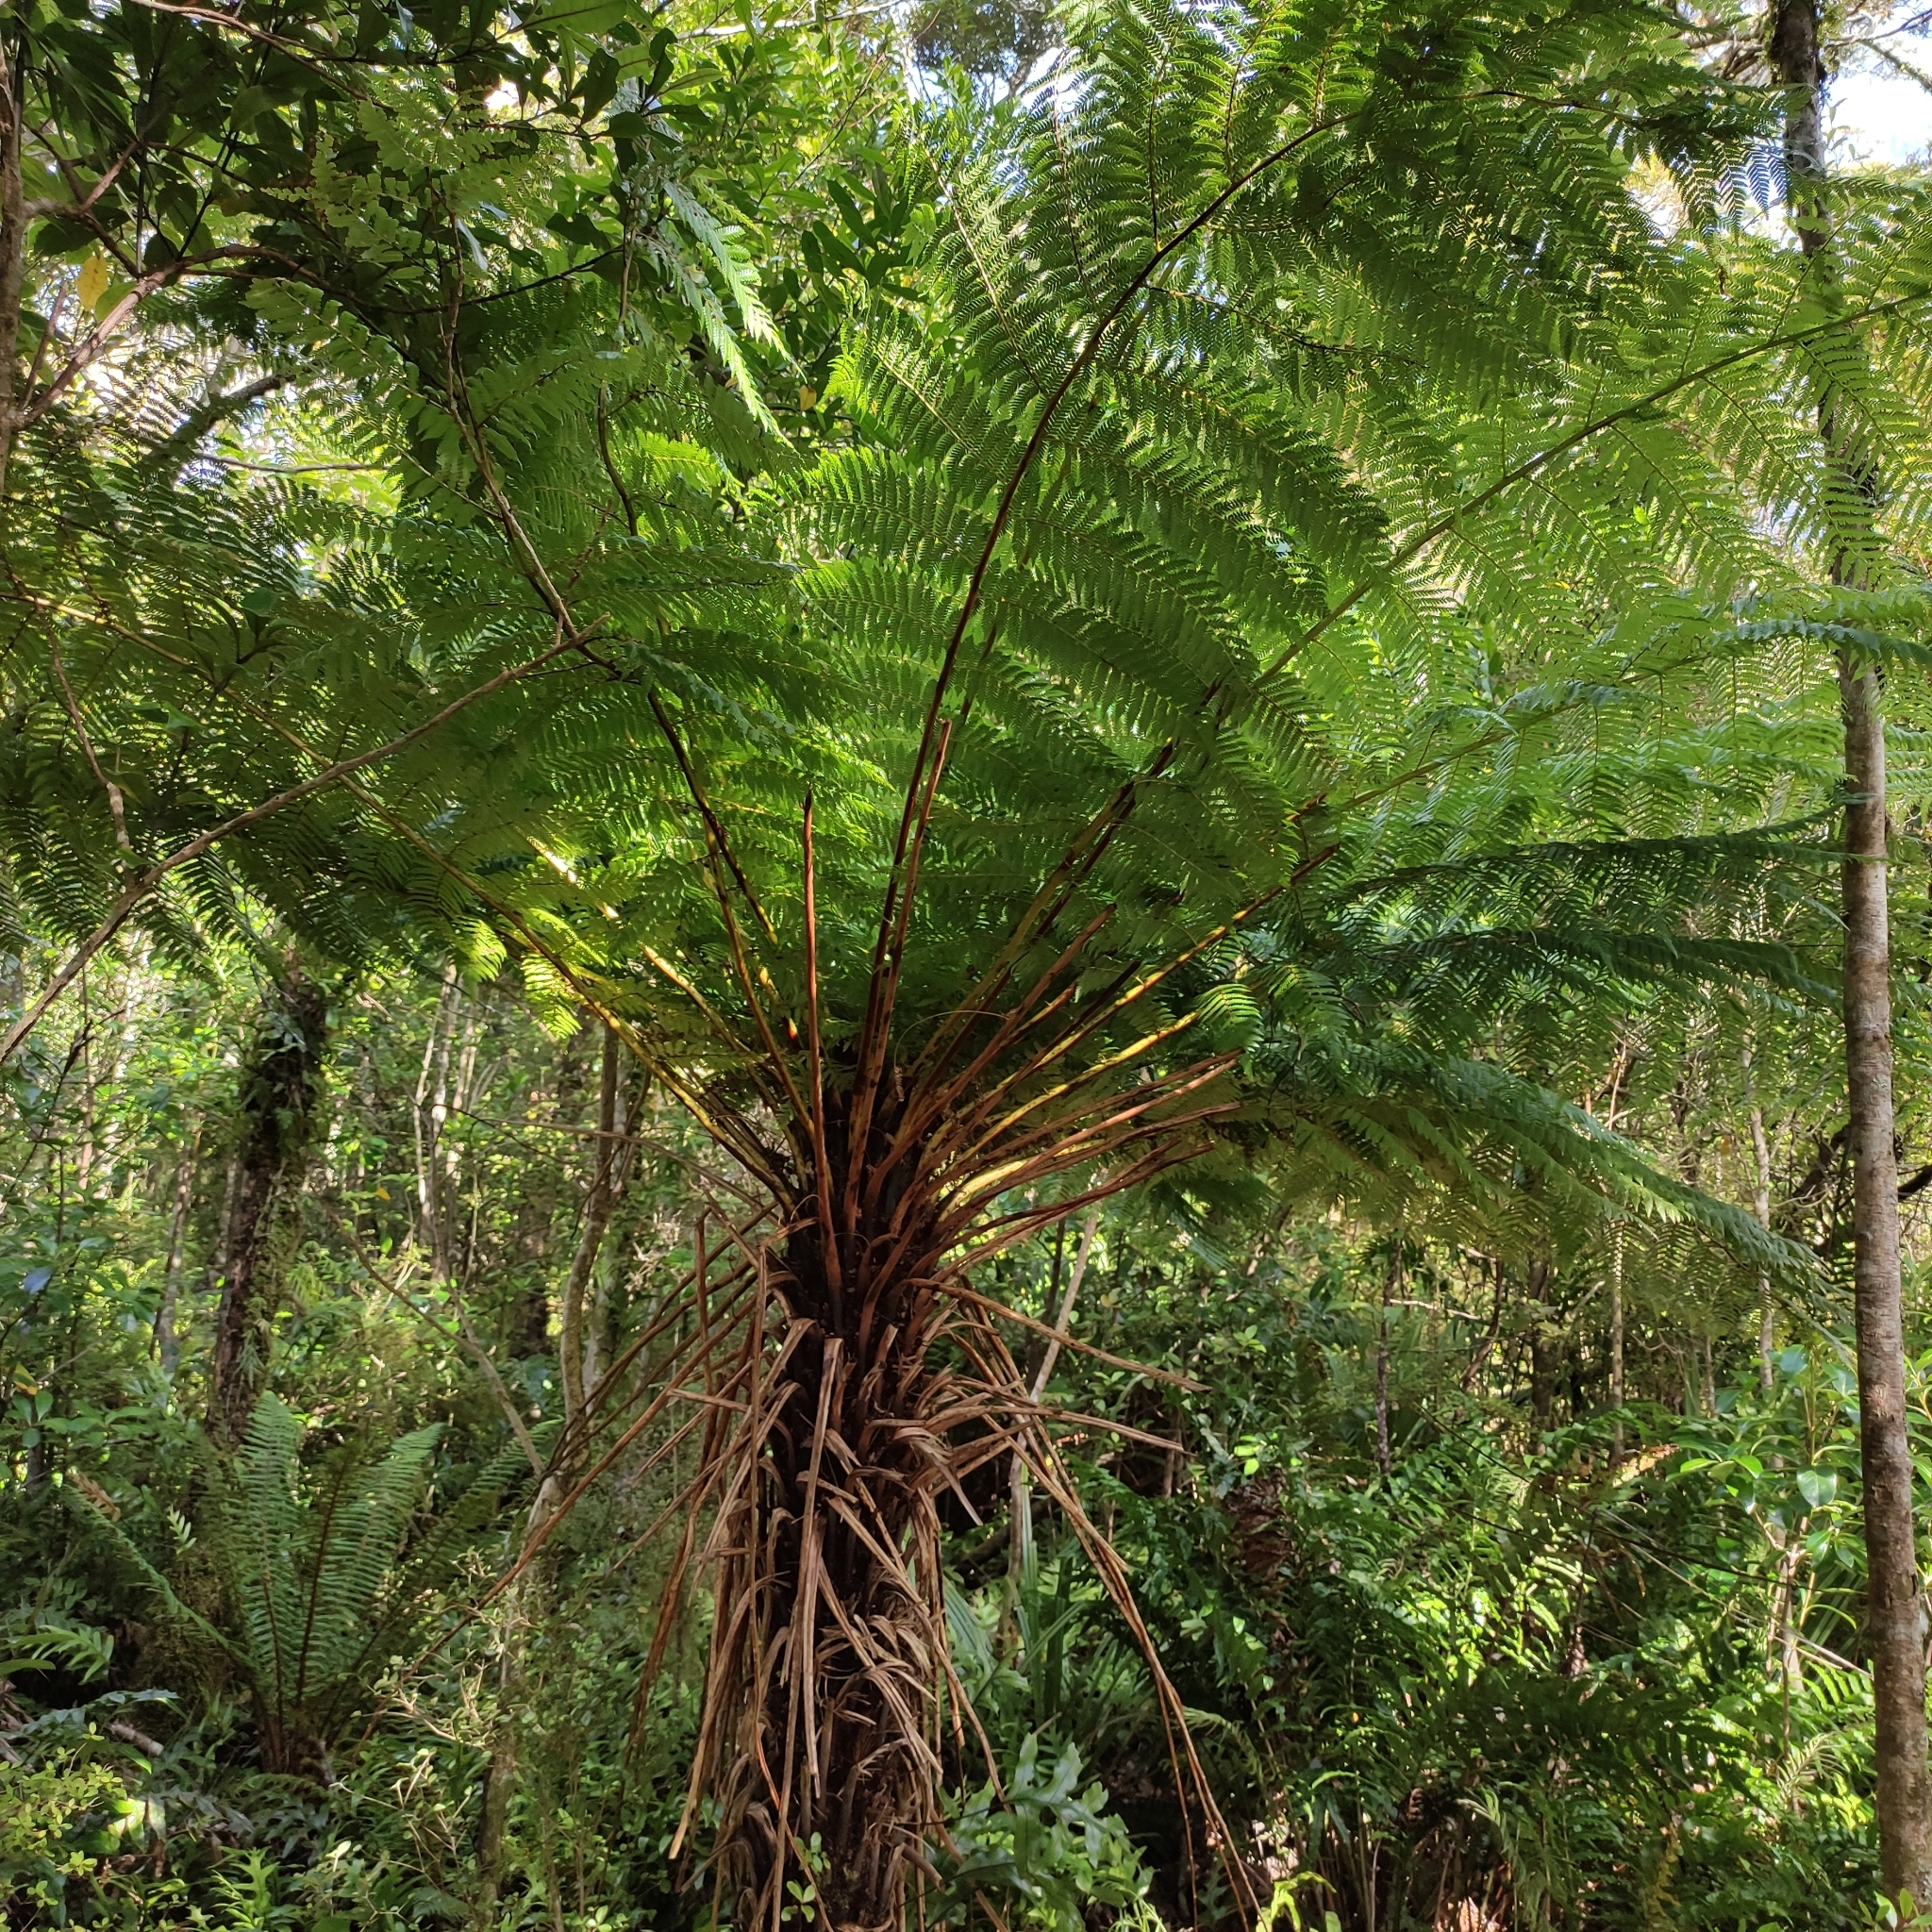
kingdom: Plantae
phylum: Tracheophyta
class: Polypodiopsida
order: Cyatheales
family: Cyatheaceae
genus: Alsophila
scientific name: Alsophila smithii
